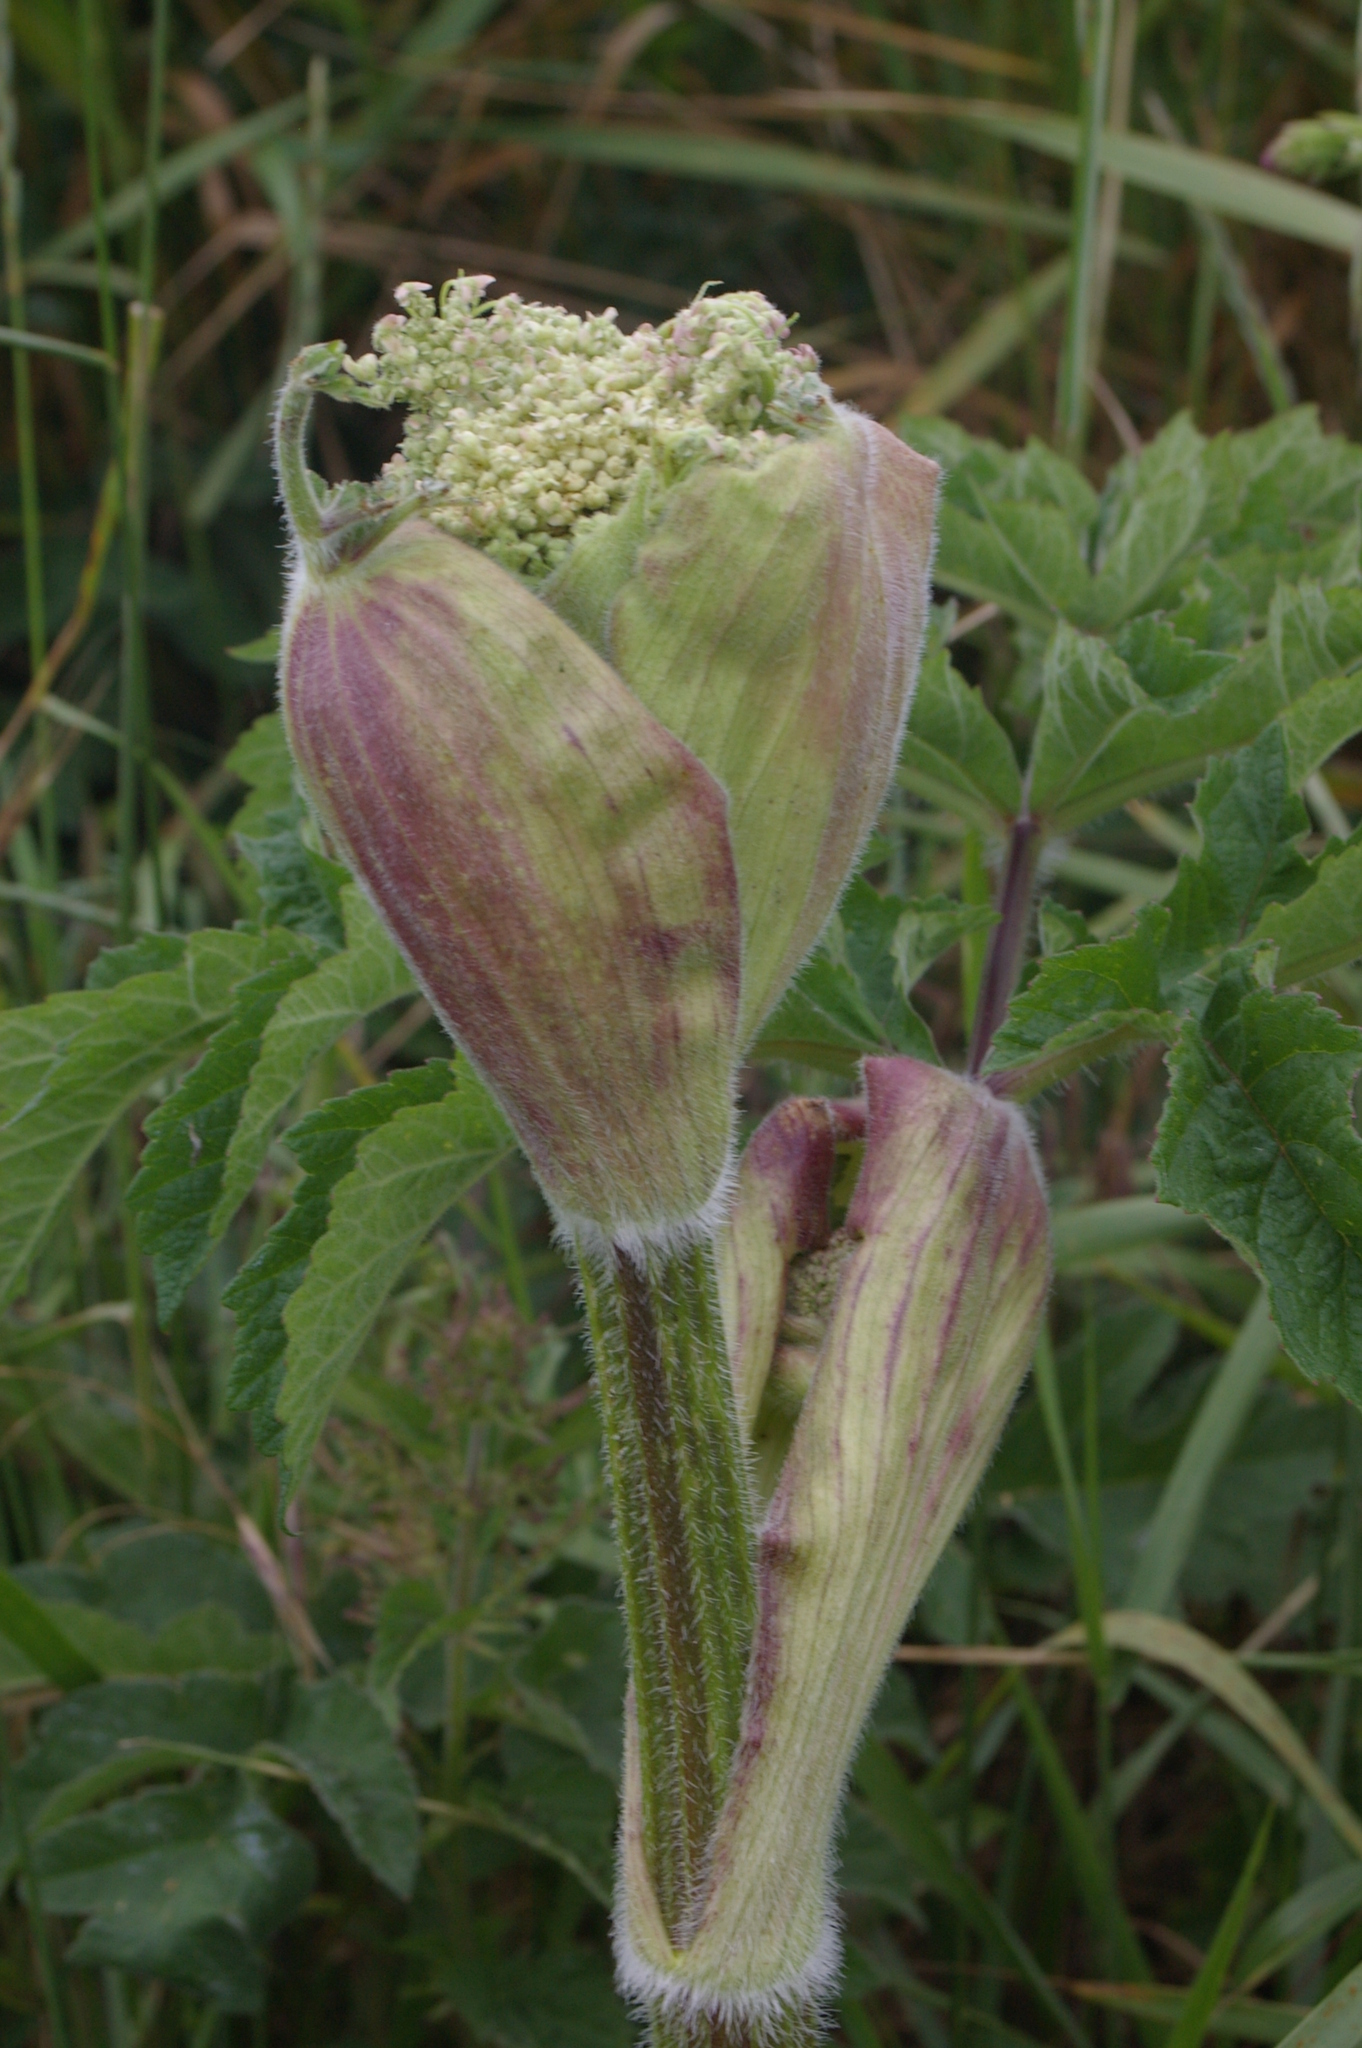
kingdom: Plantae
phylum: Tracheophyta
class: Magnoliopsida
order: Apiales
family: Apiaceae
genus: Heracleum
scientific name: Heracleum sphondylium
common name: Hogweed
